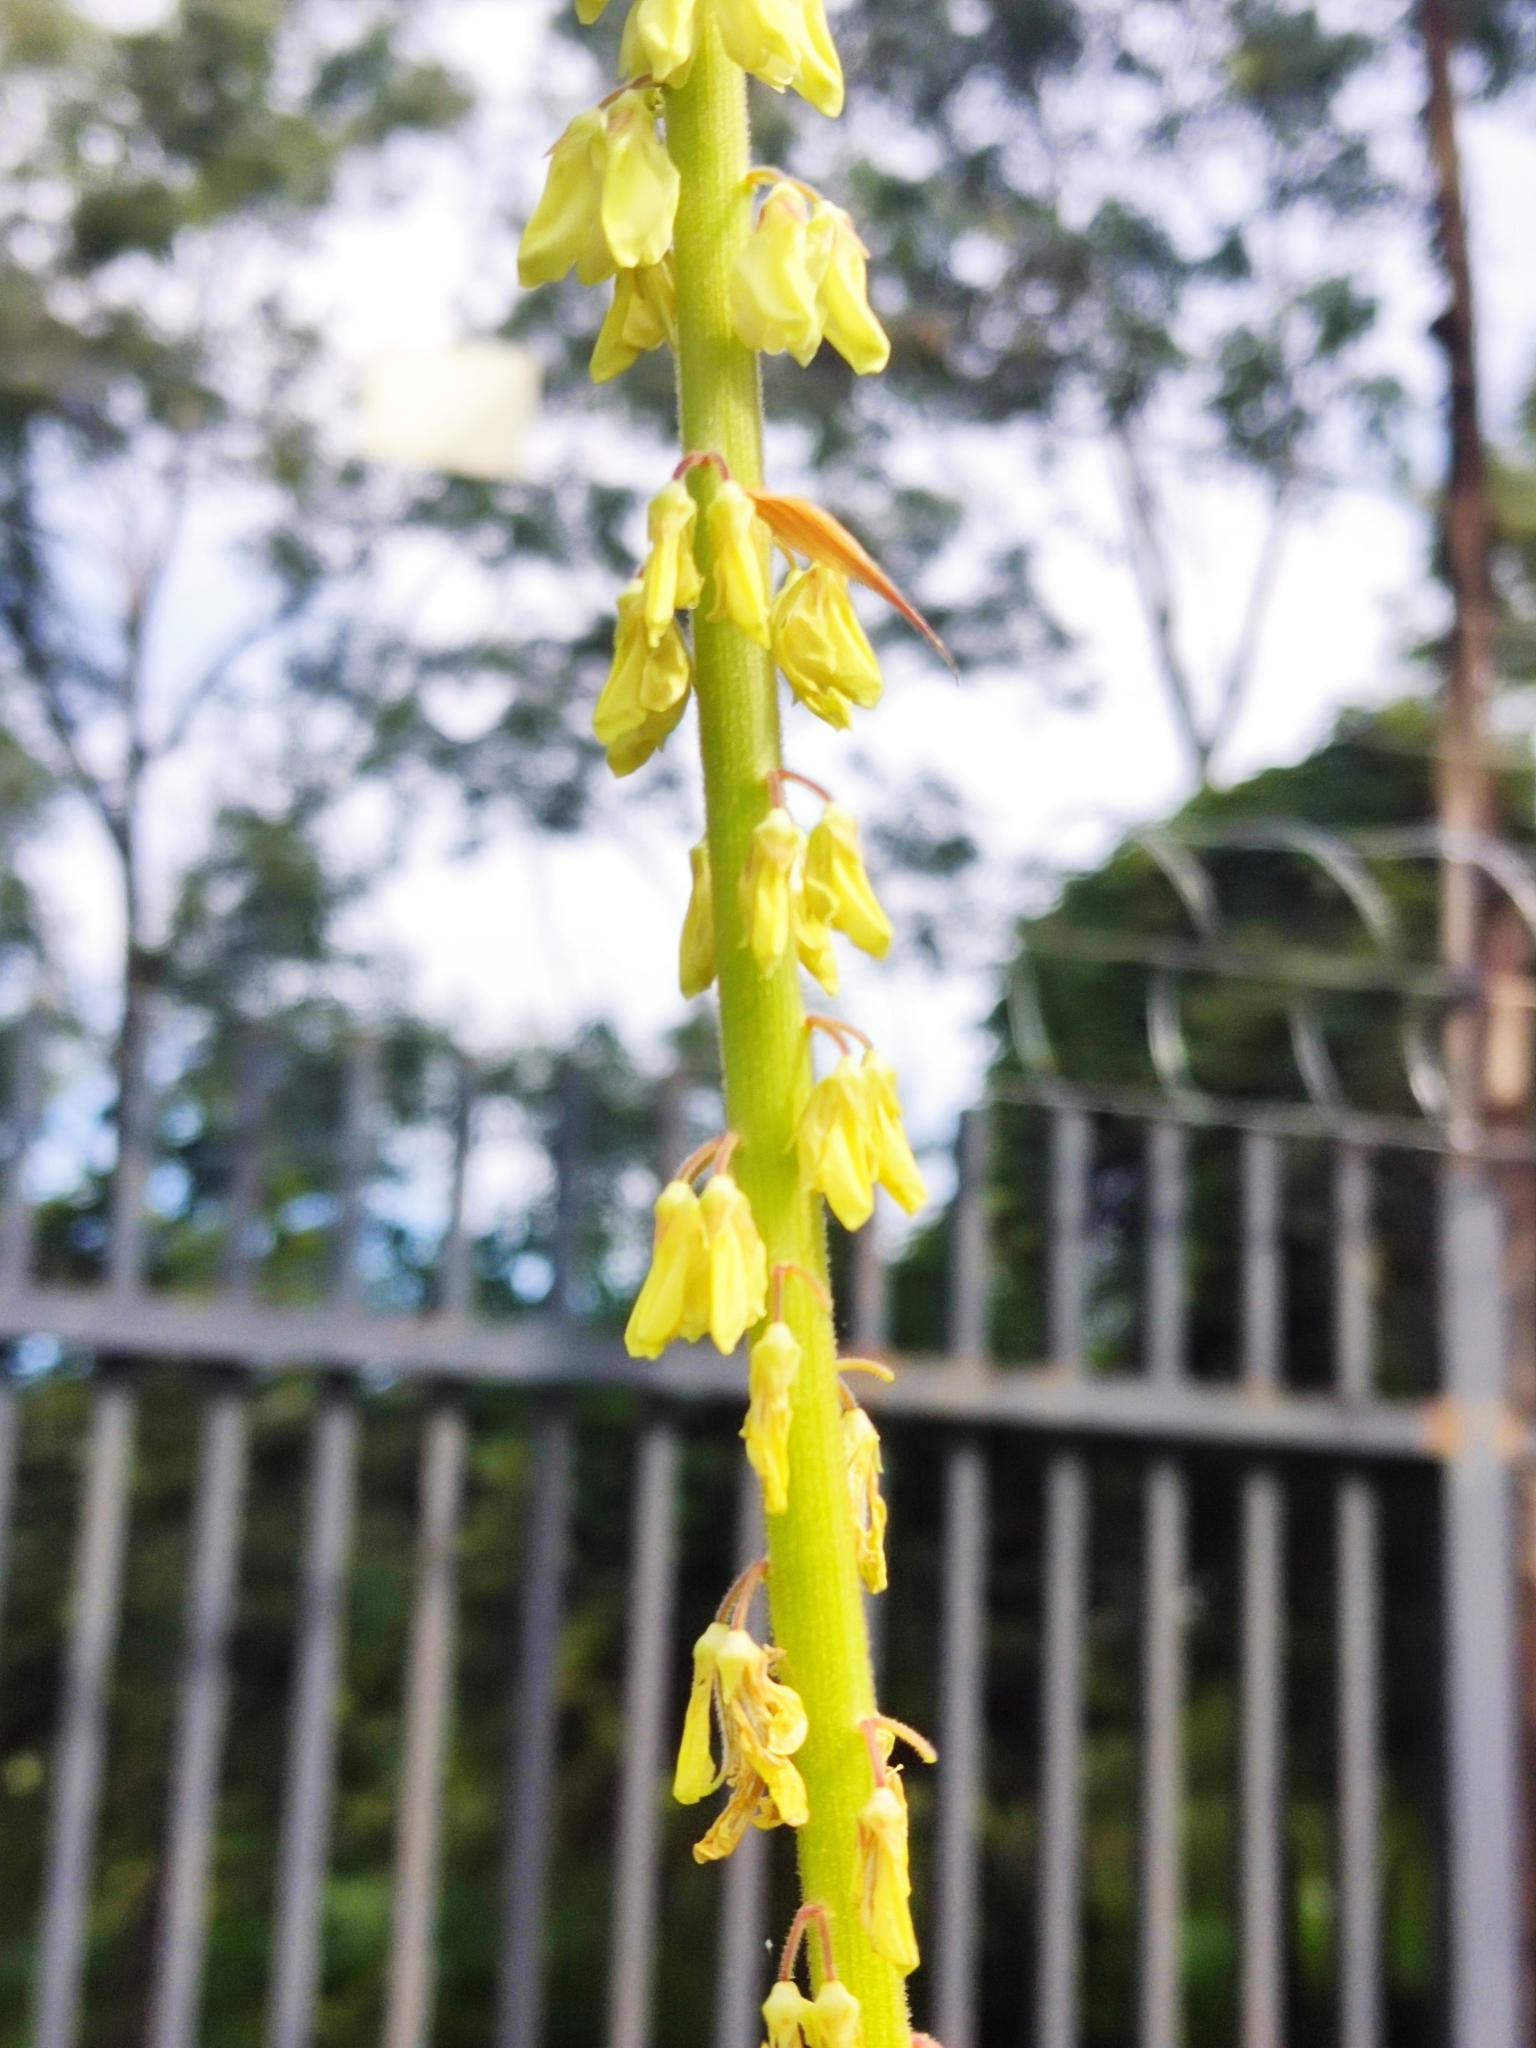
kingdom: Plantae
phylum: Tracheophyta
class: Magnoliopsida
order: Fabales
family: Fabaceae
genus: Desmodium
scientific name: Desmodium macrostachyum
